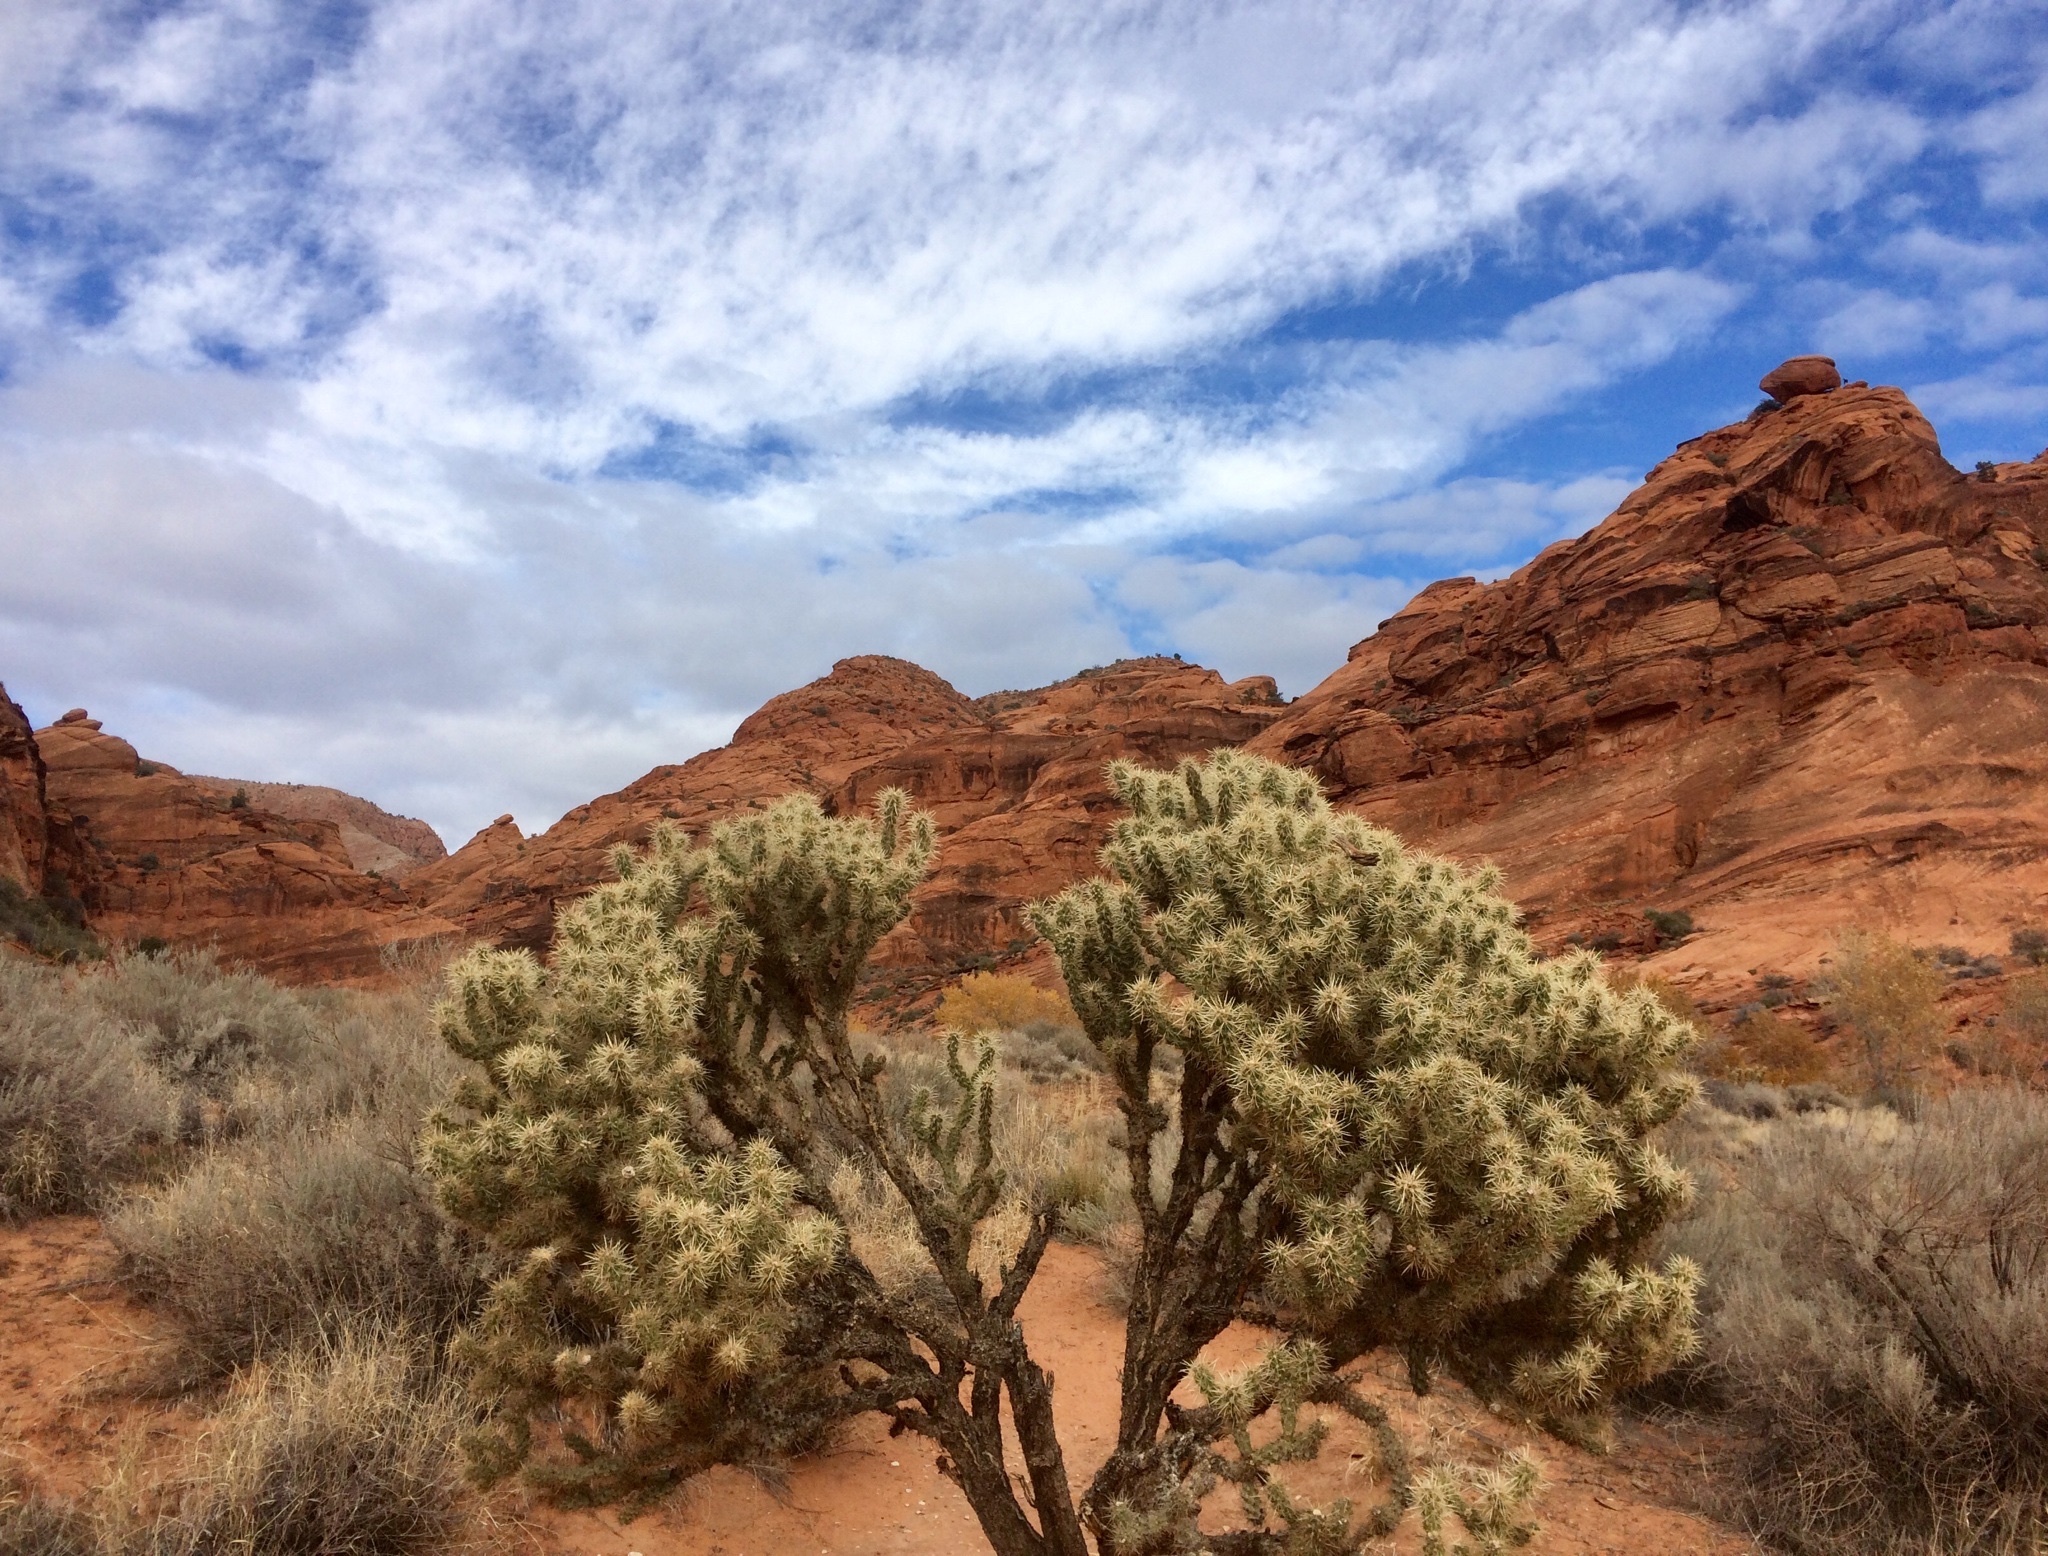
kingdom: Plantae
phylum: Tracheophyta
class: Magnoliopsida
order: Caryophyllales
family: Cactaceae
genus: Cylindropuntia
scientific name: Cylindropuntia echinocarpa
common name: Ground cholla
